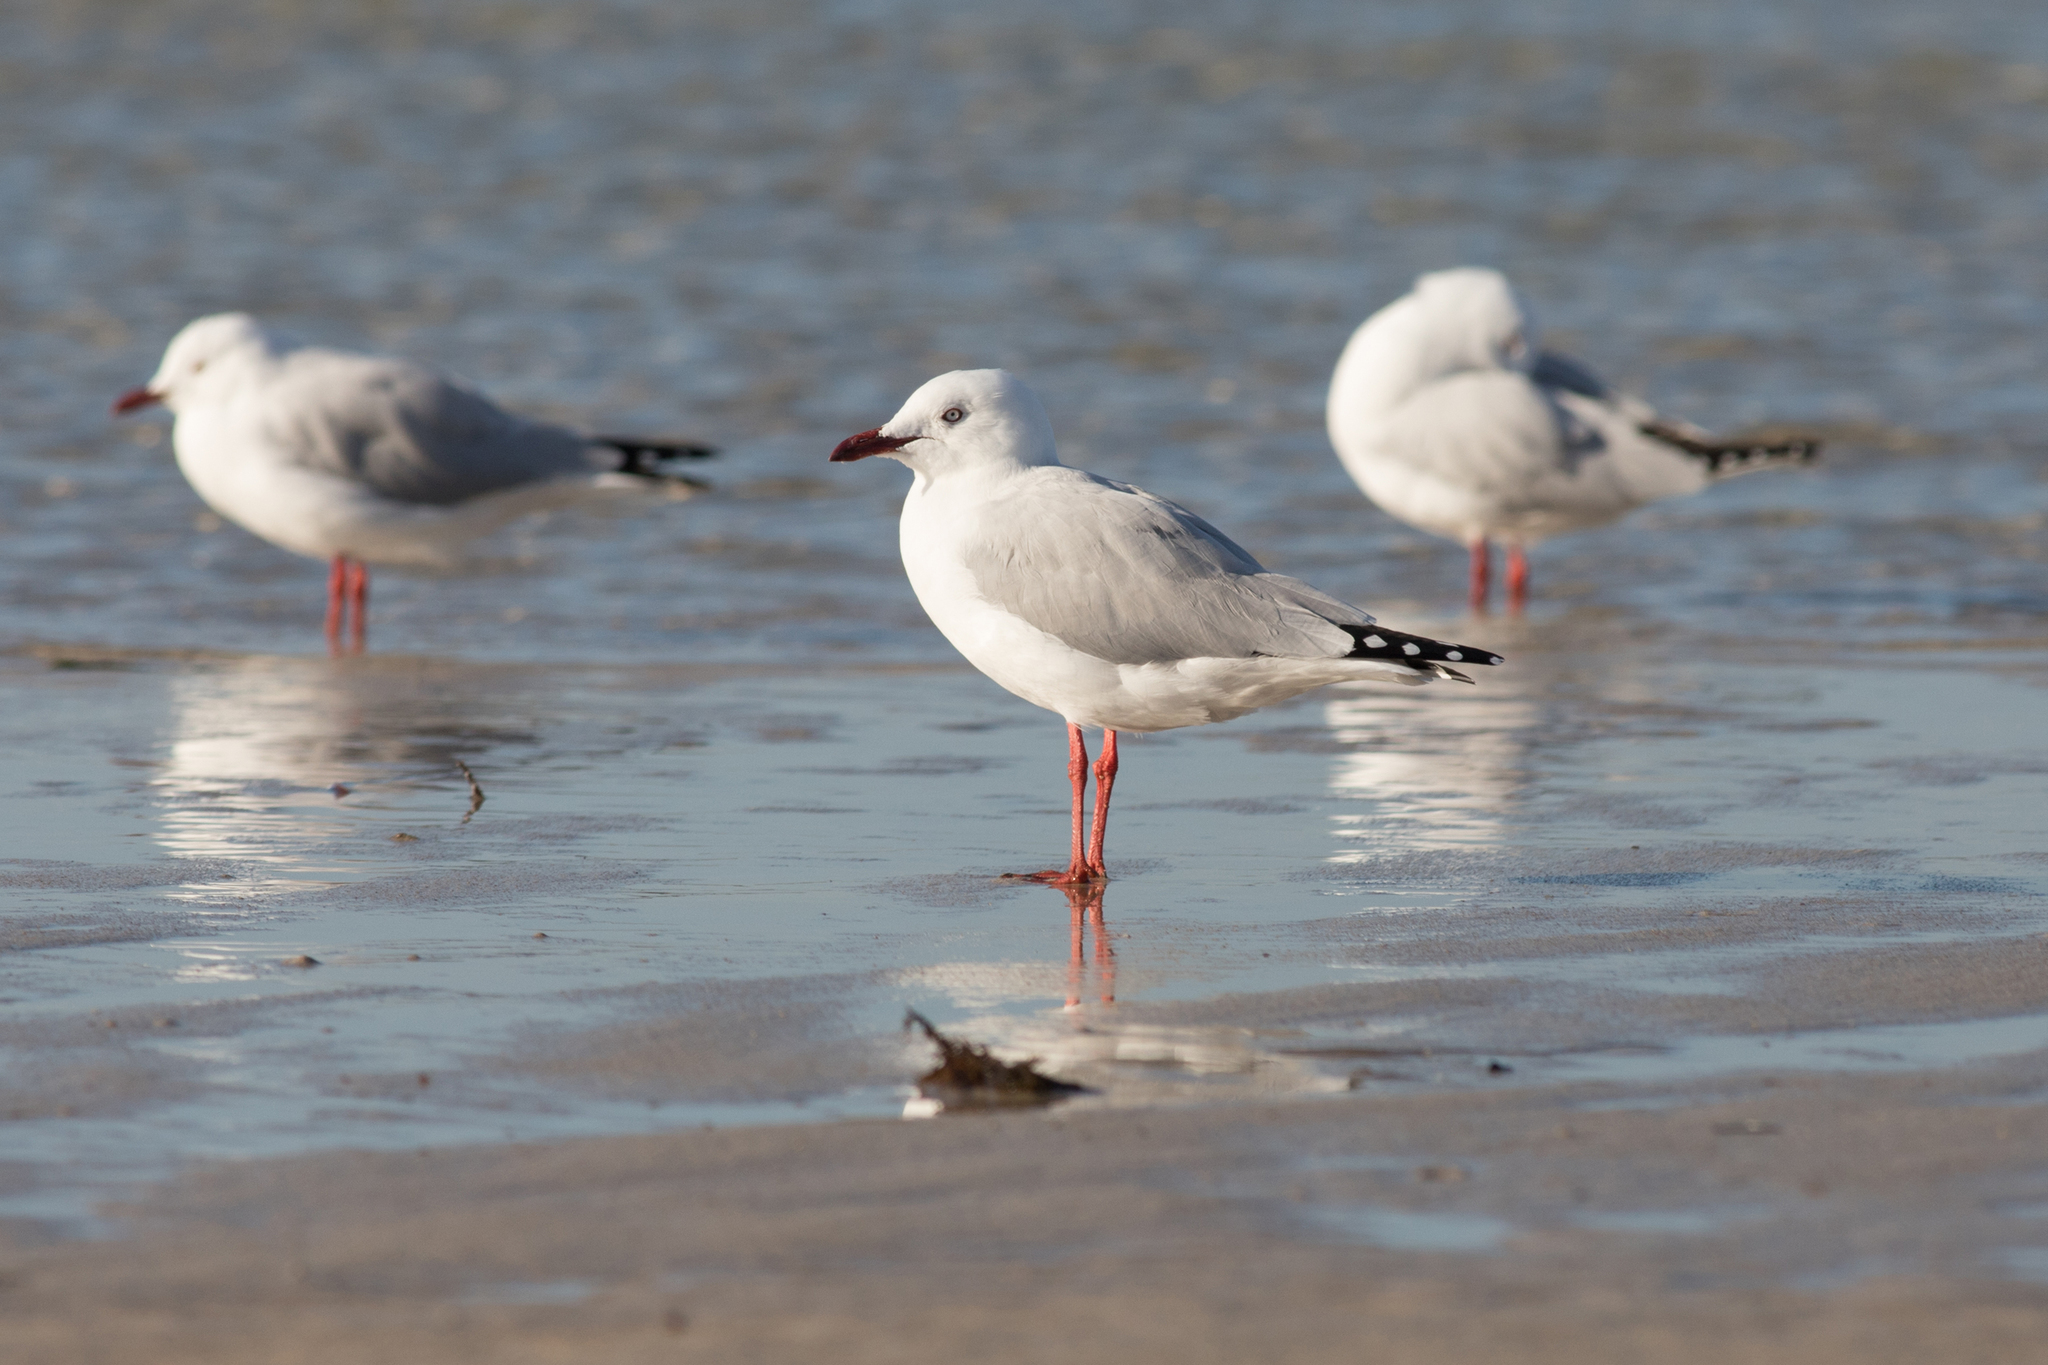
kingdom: Animalia
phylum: Chordata
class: Aves
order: Charadriiformes
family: Laridae
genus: Chroicocephalus
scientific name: Chroicocephalus novaehollandiae
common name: Silver gull
